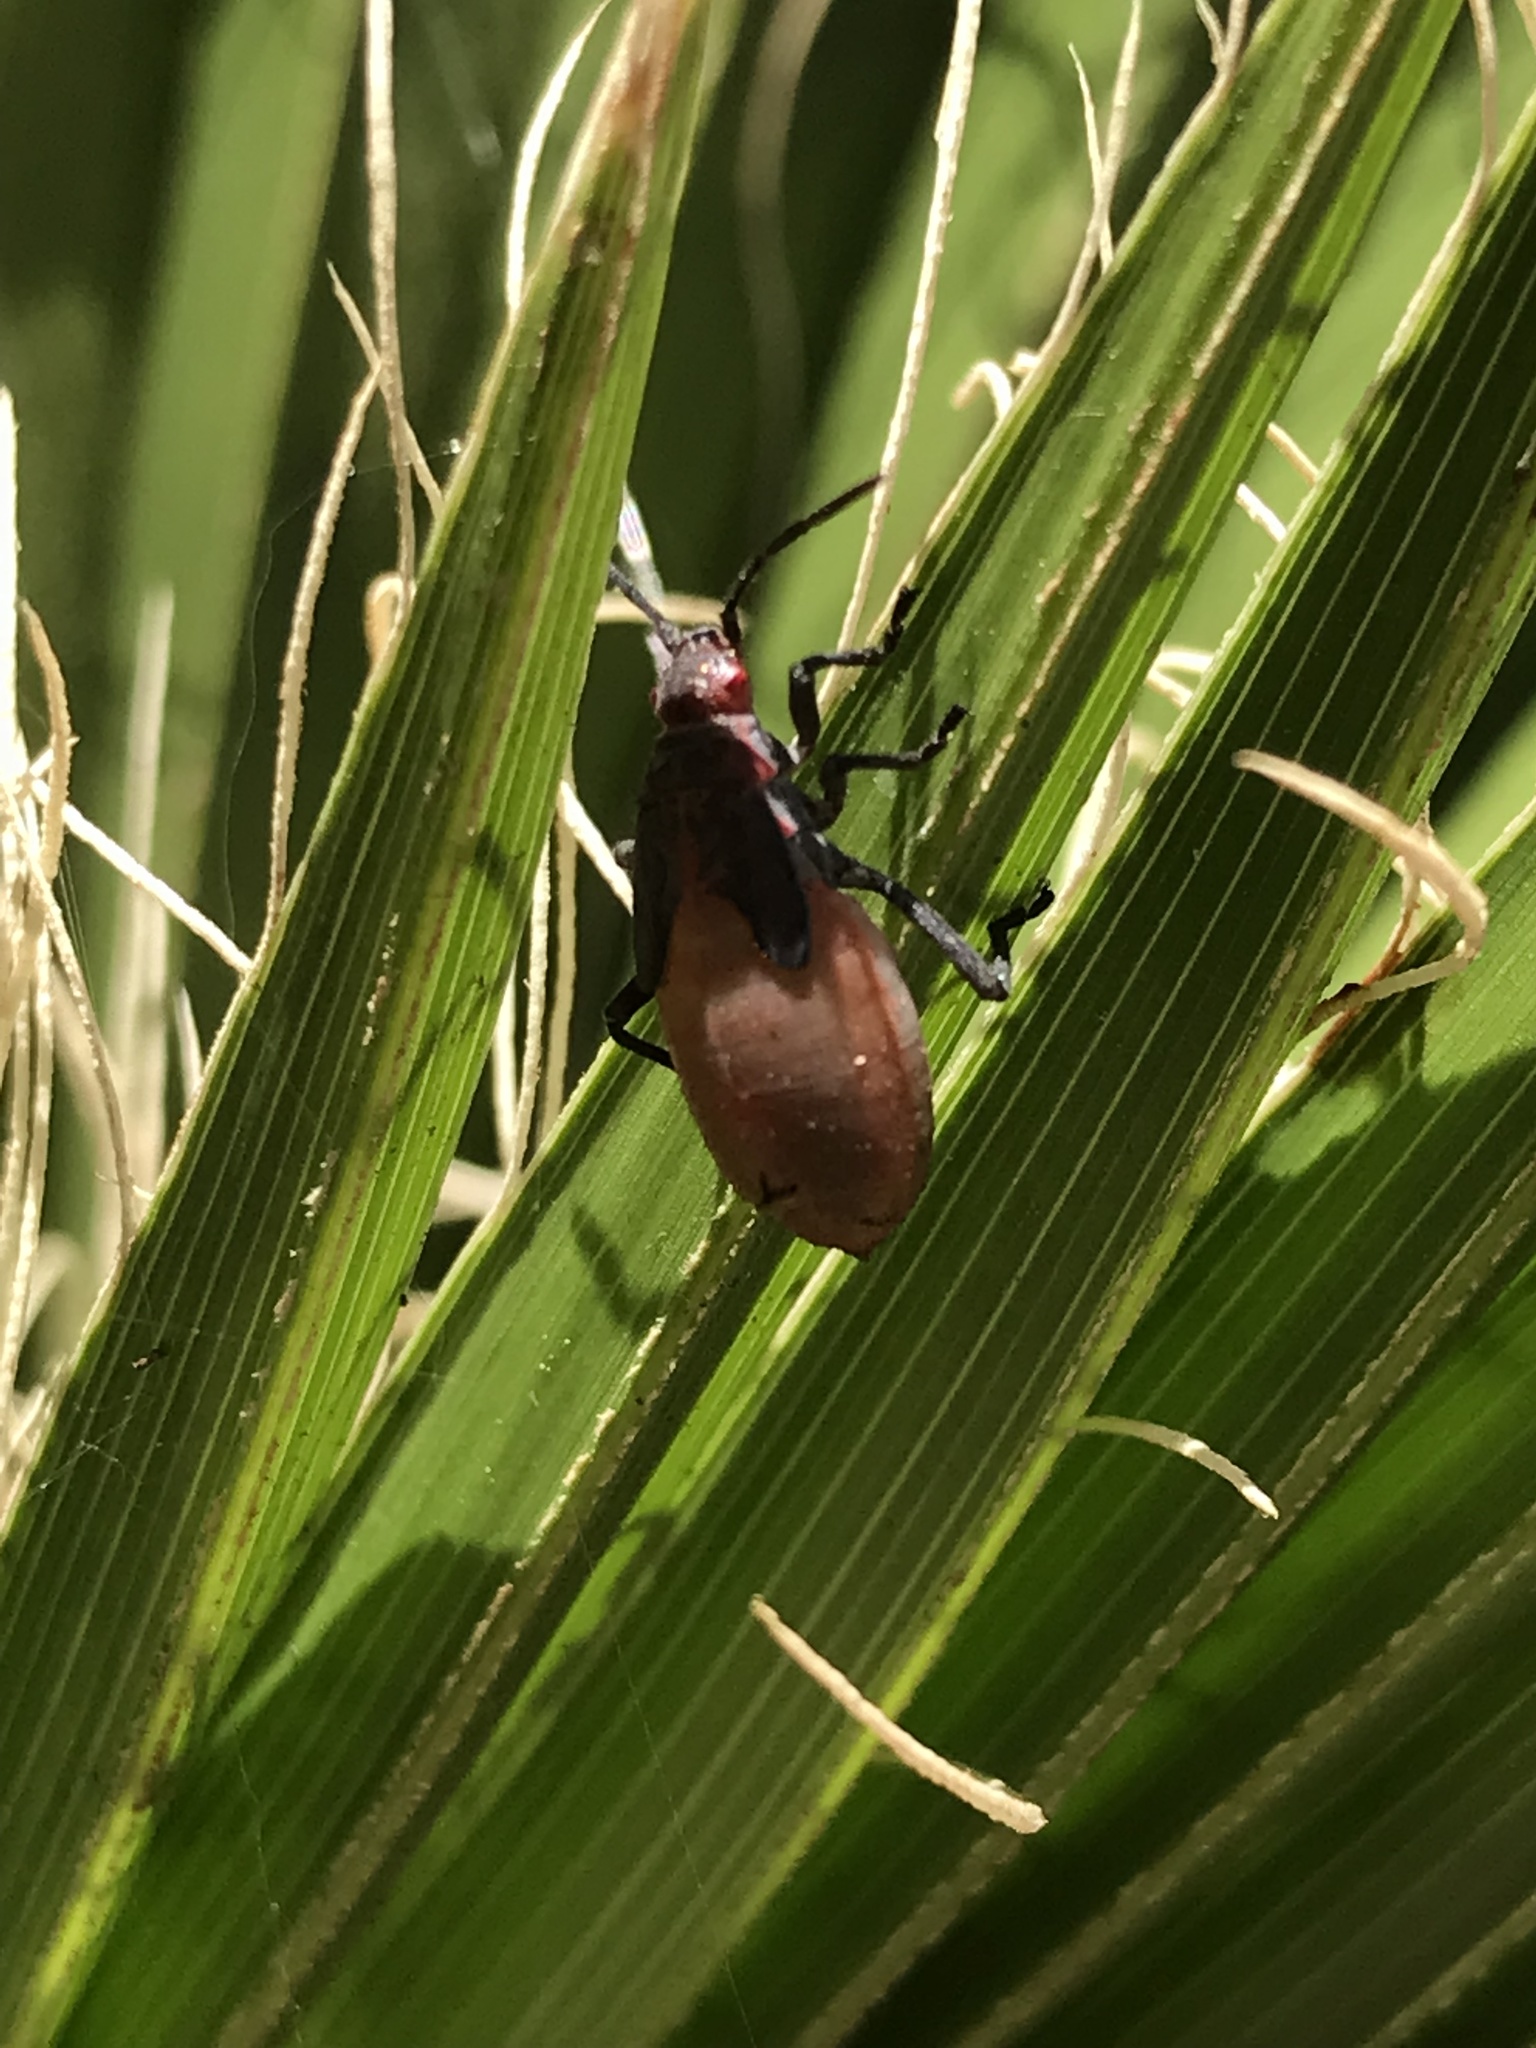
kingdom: Animalia
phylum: Arthropoda
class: Insecta
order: Hemiptera
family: Rhopalidae
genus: Jadera
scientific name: Jadera haematoloma
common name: Red-shouldered bug
